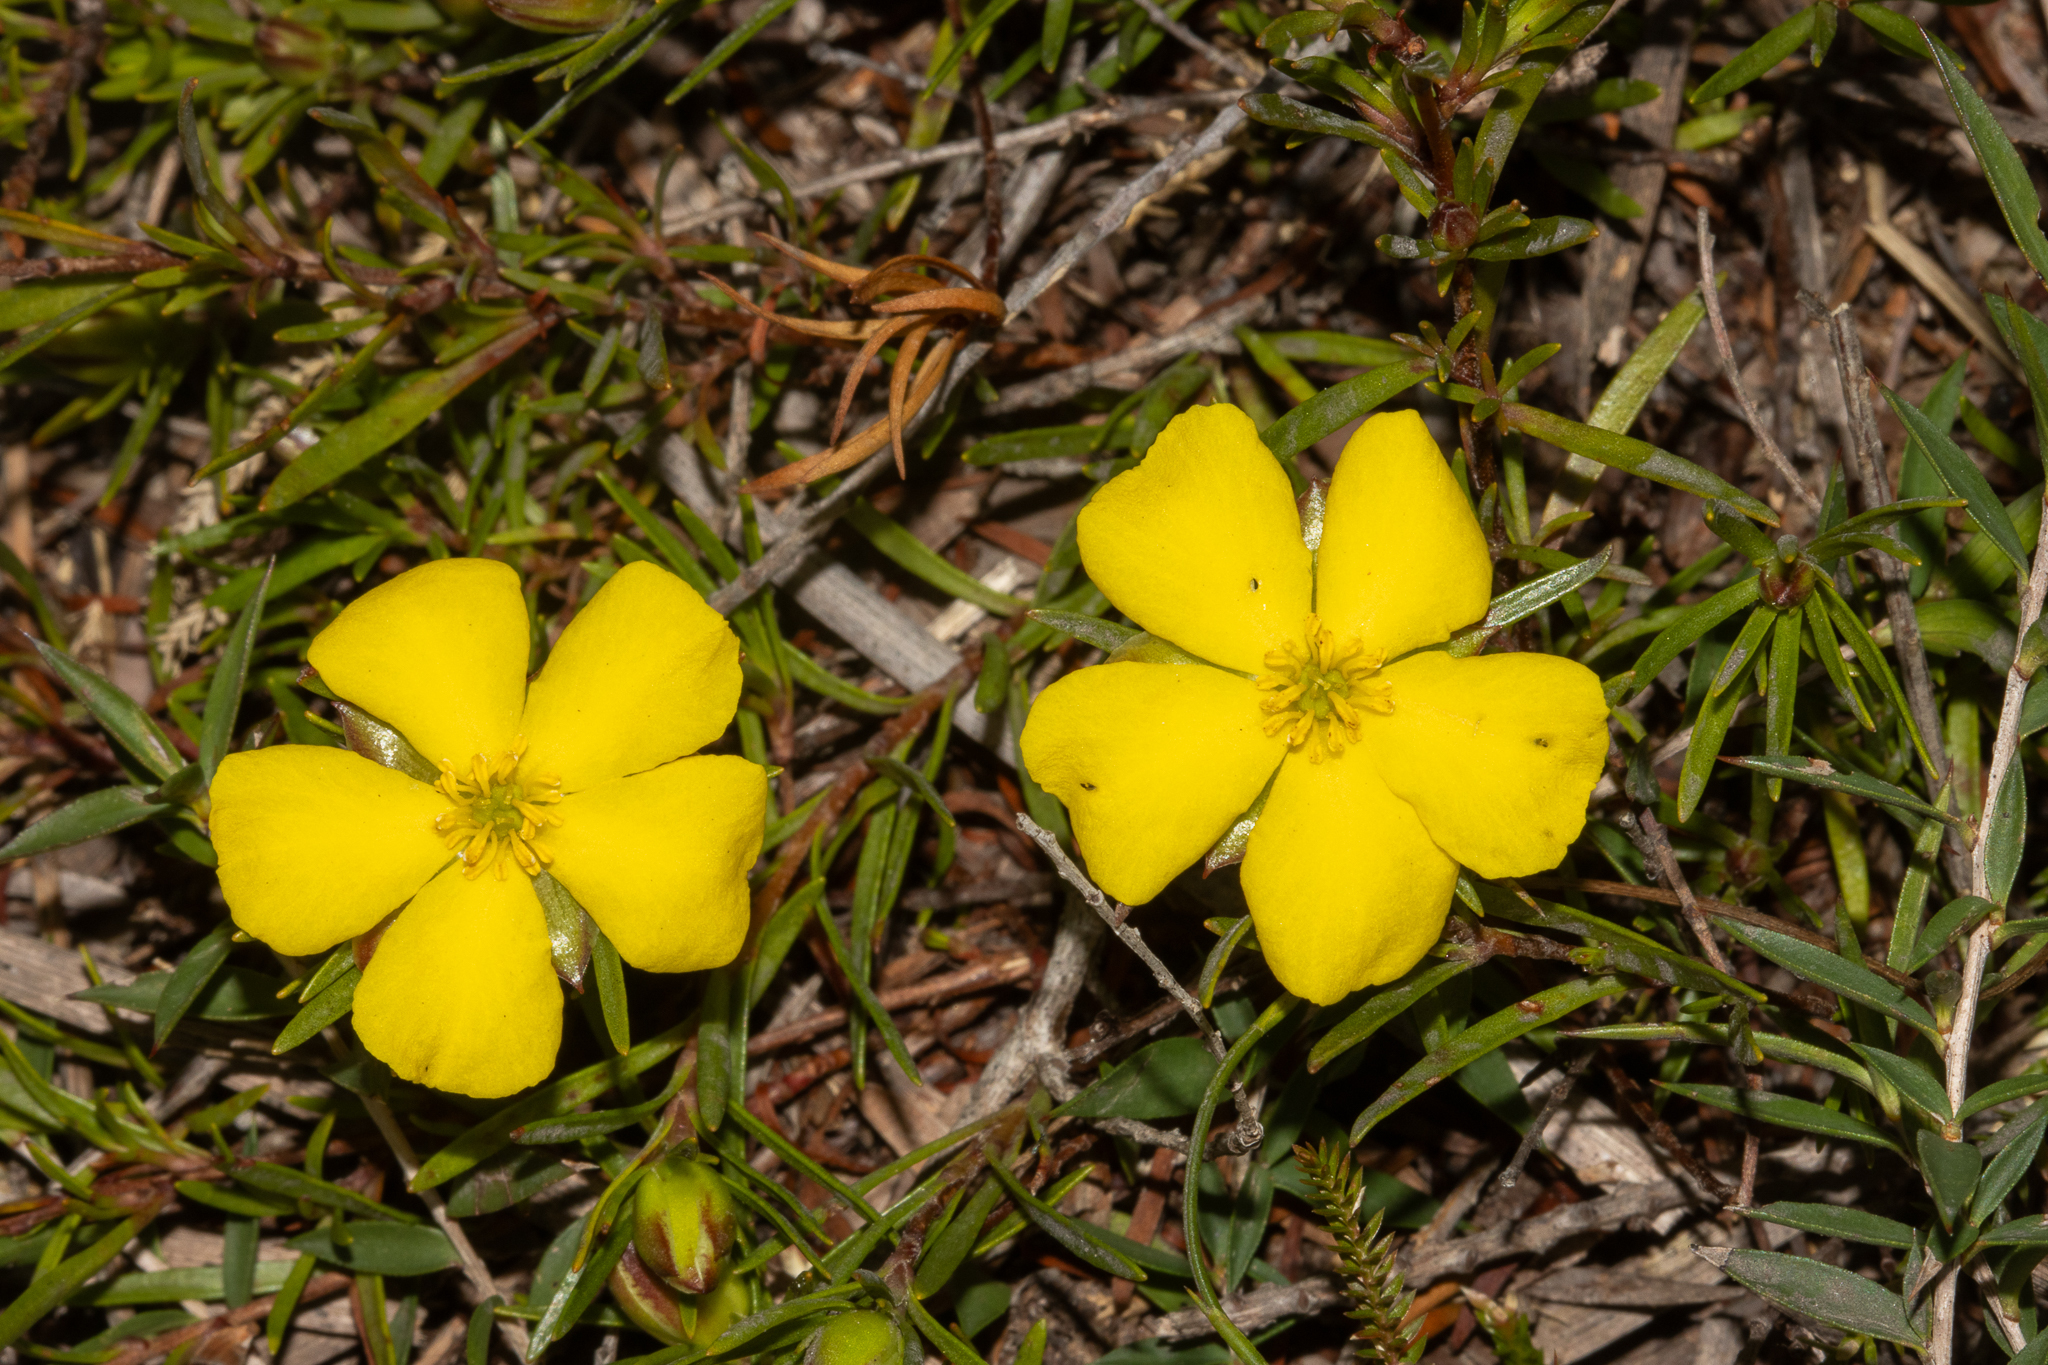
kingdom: Plantae
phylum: Tracheophyta
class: Magnoliopsida
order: Dilleniales
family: Dilleniaceae
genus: Hibbertia
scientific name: Hibbertia procumbens
